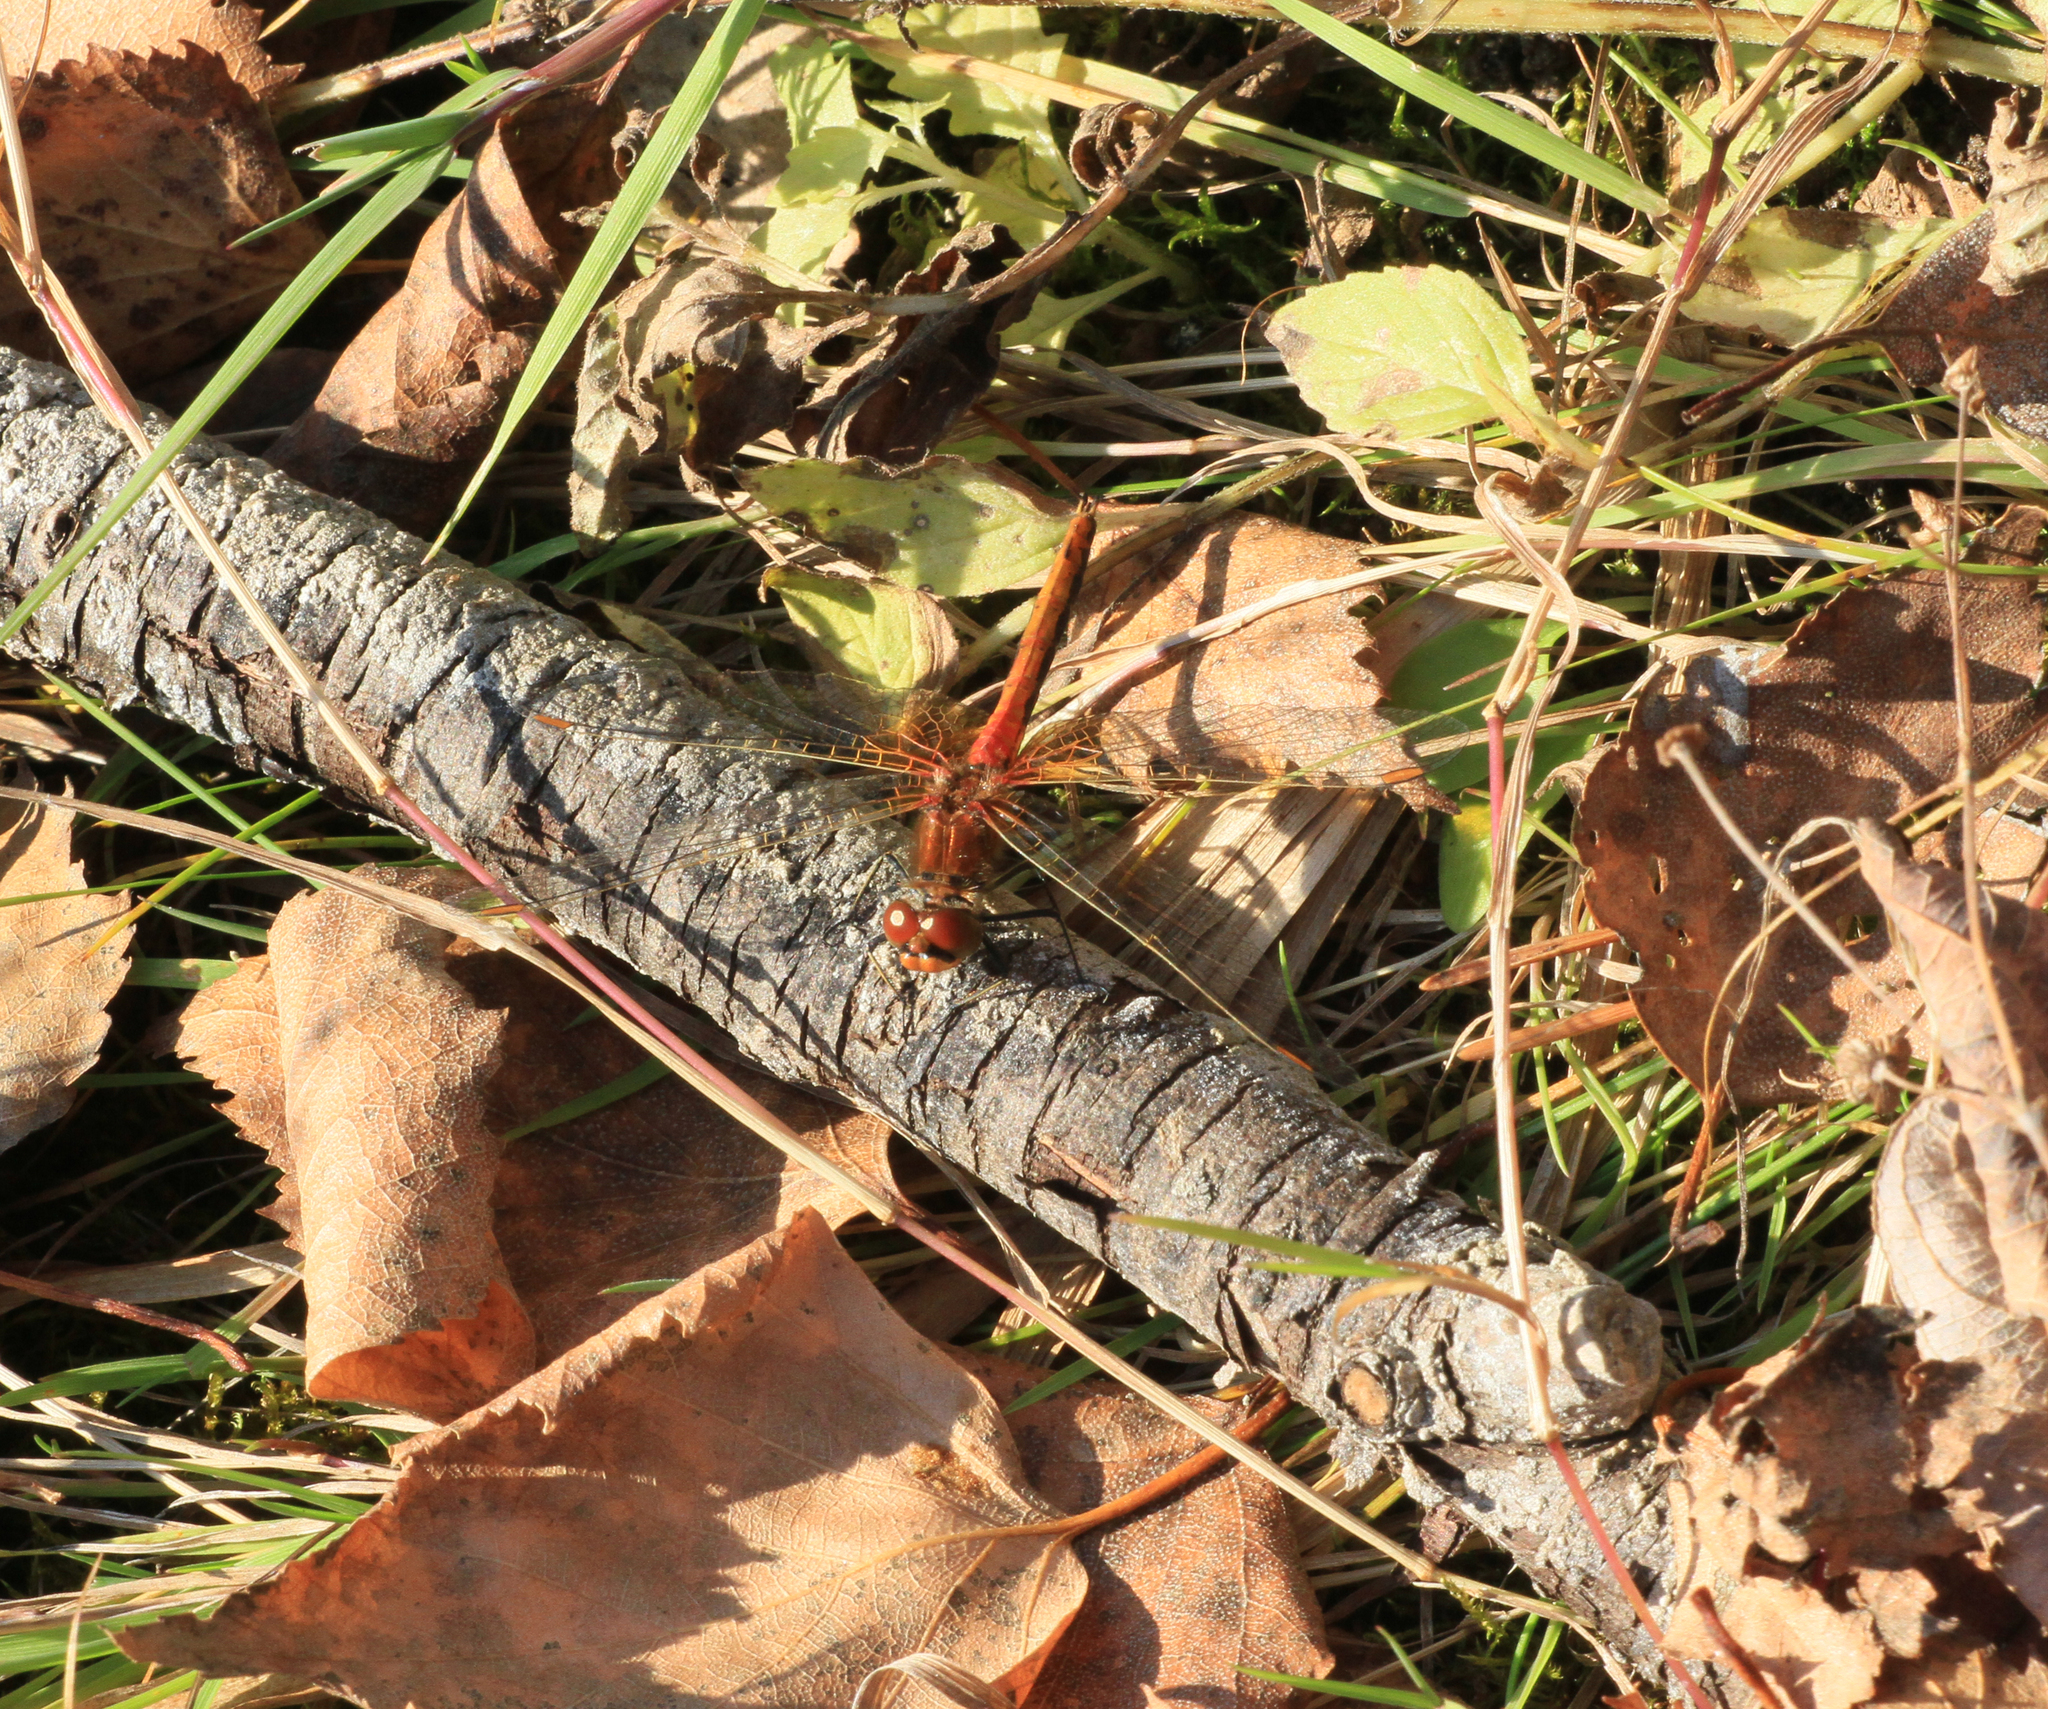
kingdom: Animalia
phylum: Arthropoda
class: Insecta
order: Odonata
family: Libellulidae
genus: Sympetrum
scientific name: Sympetrum flaveolum
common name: Yellow-winged darter
